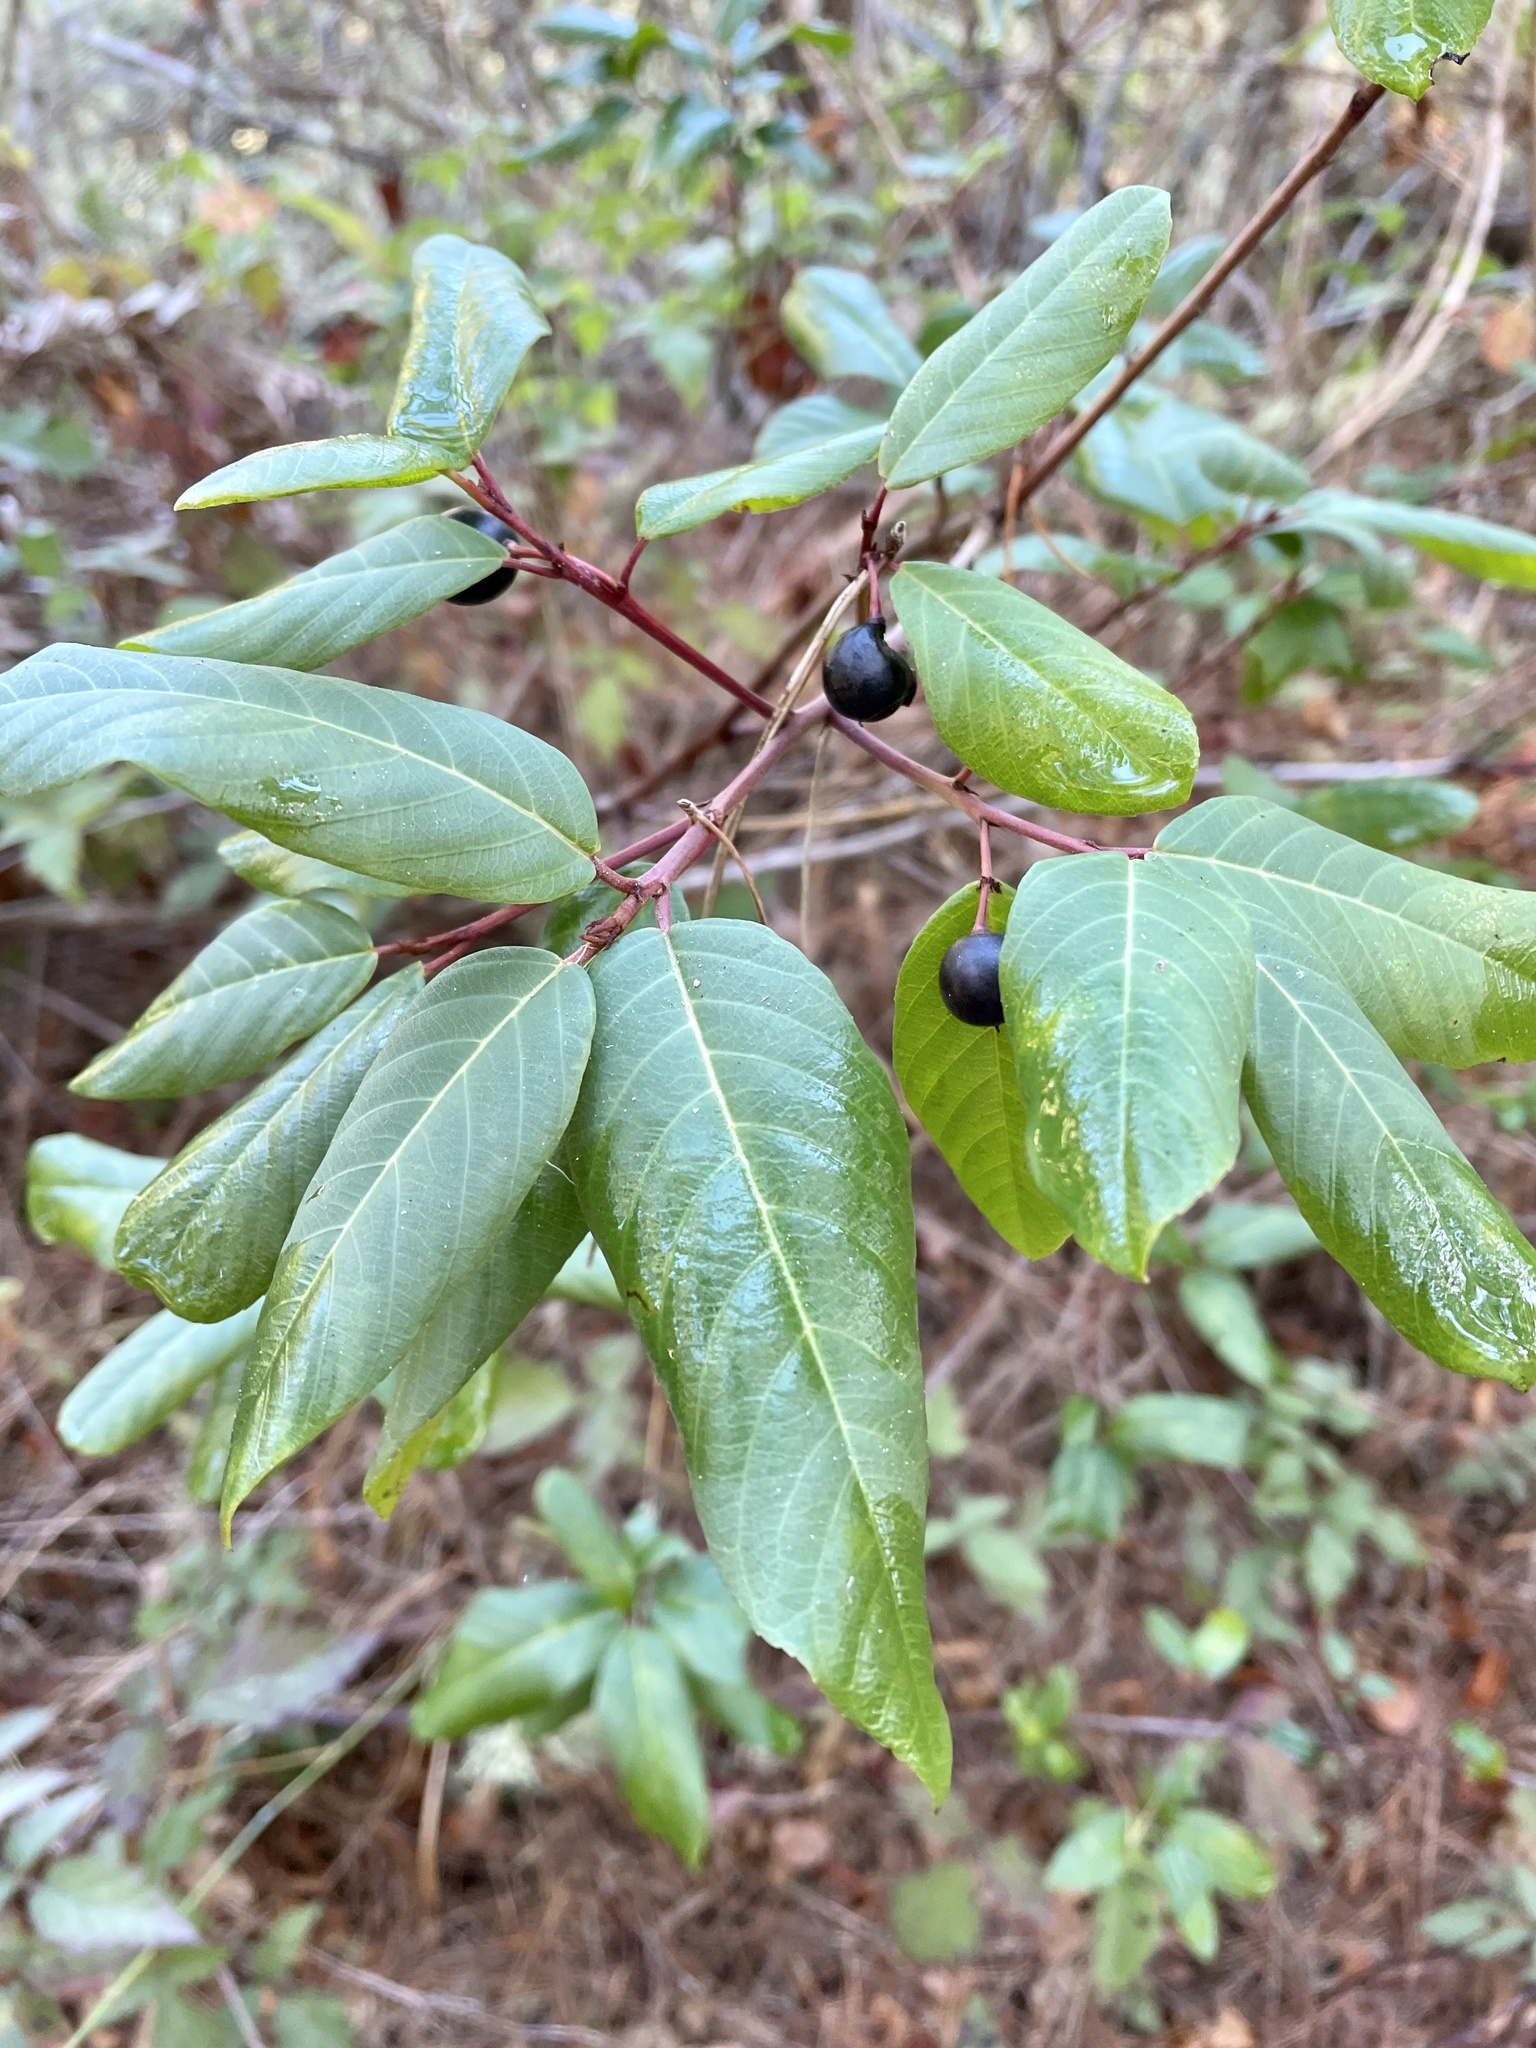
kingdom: Plantae
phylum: Tracheophyta
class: Magnoliopsida
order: Rosales
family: Rhamnaceae
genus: Frangula
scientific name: Frangula californica
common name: California buckthorn
